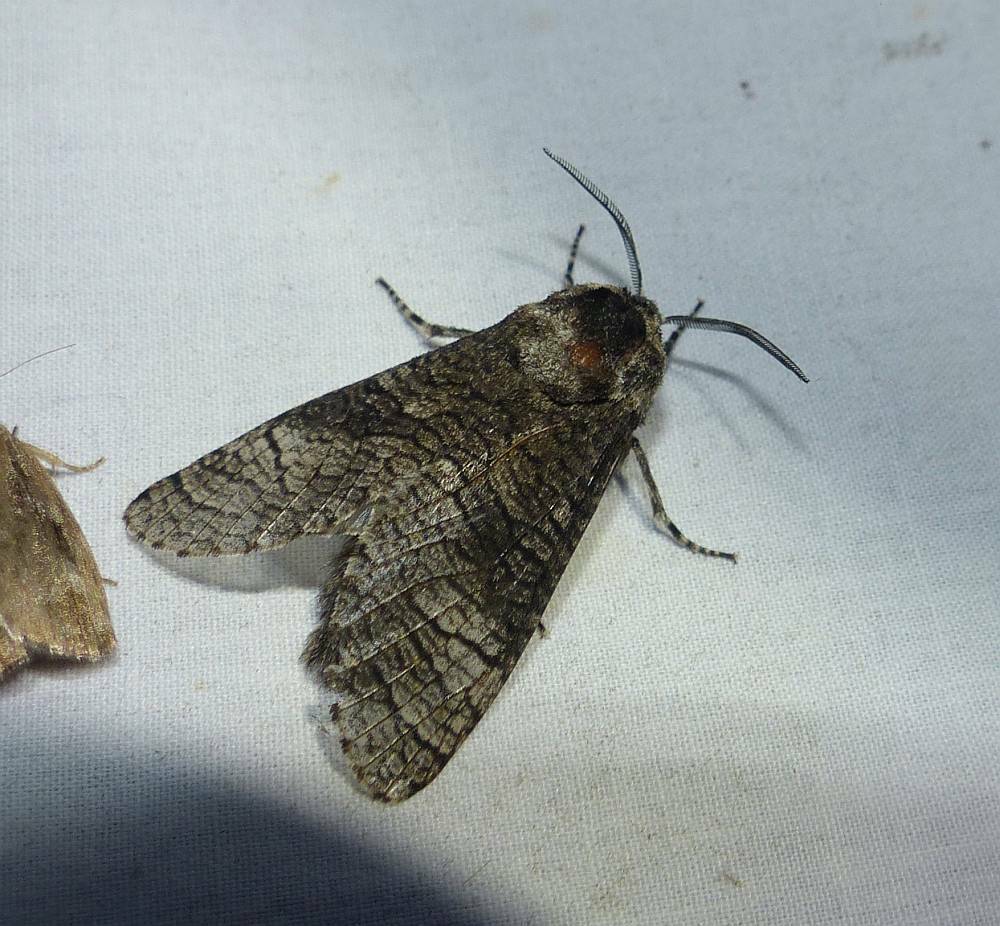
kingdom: Animalia
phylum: Arthropoda
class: Insecta
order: Lepidoptera
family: Cossidae
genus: Acossus
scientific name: Acossus centerensis
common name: Poplar carpenterworm moth
